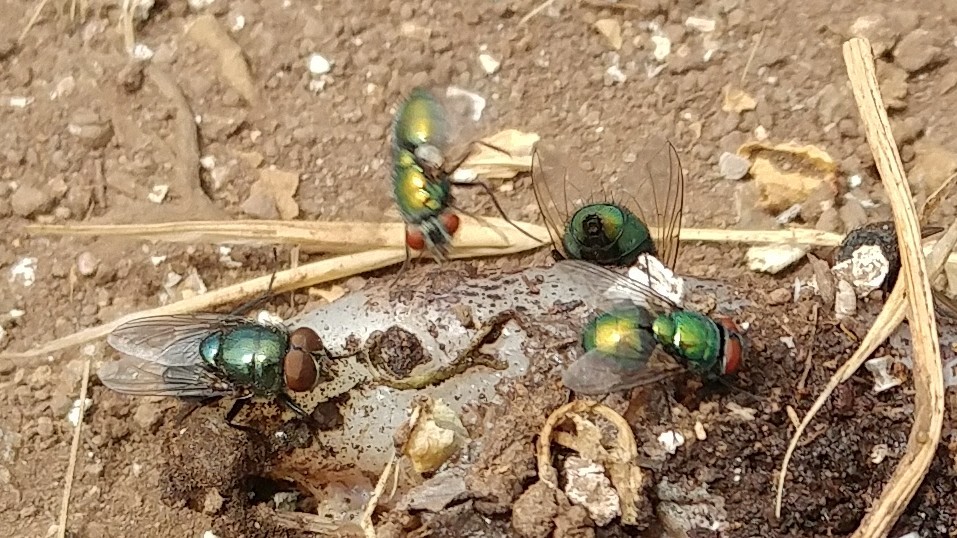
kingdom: Animalia
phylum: Arthropoda
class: Insecta
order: Diptera
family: Calliphoridae
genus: Phormia
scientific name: Phormia regina
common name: Black blow fly
